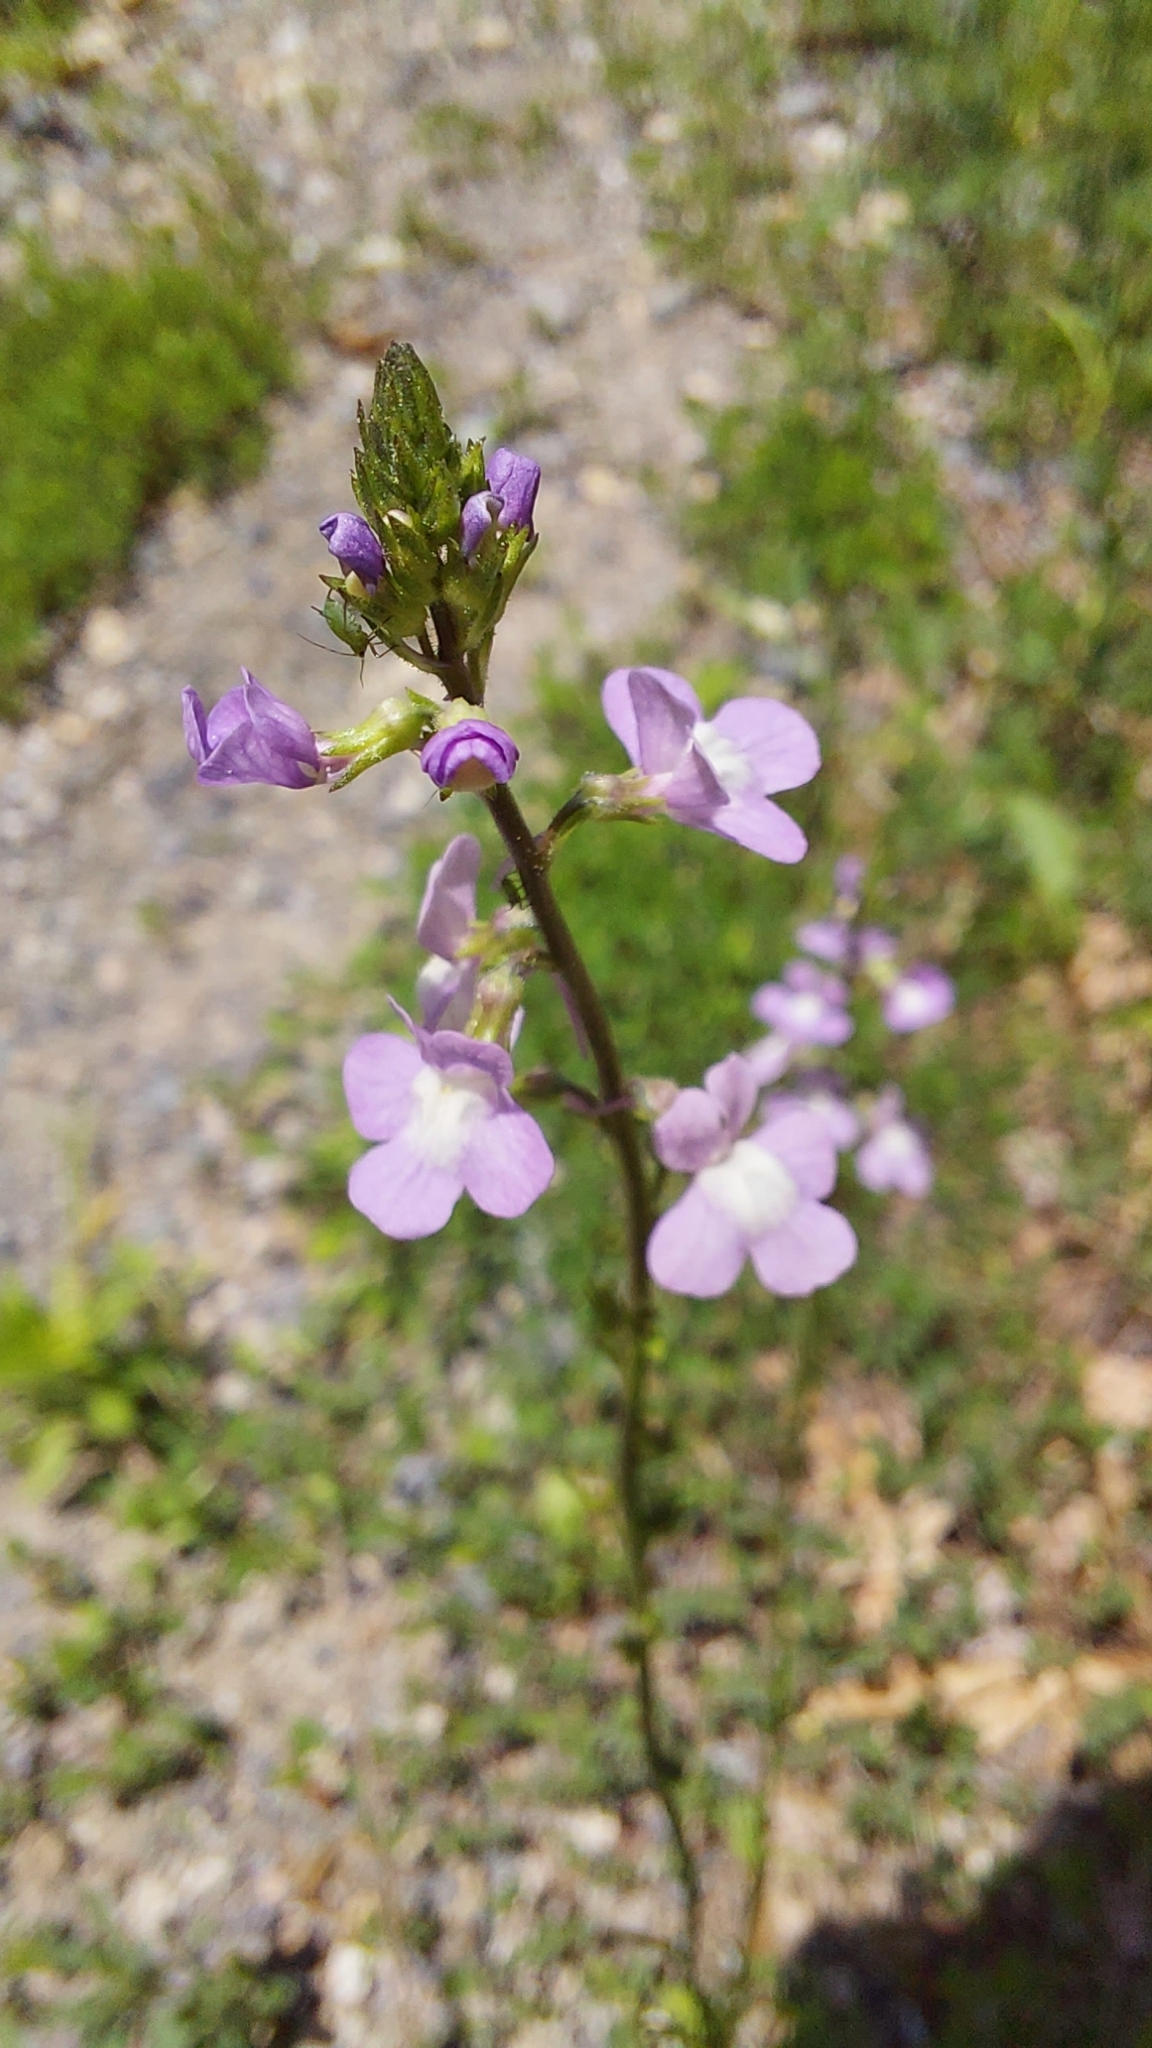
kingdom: Plantae
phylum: Tracheophyta
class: Magnoliopsida
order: Lamiales
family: Plantaginaceae
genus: Nuttallanthus
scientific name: Nuttallanthus canadensis
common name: Blue toadflax
